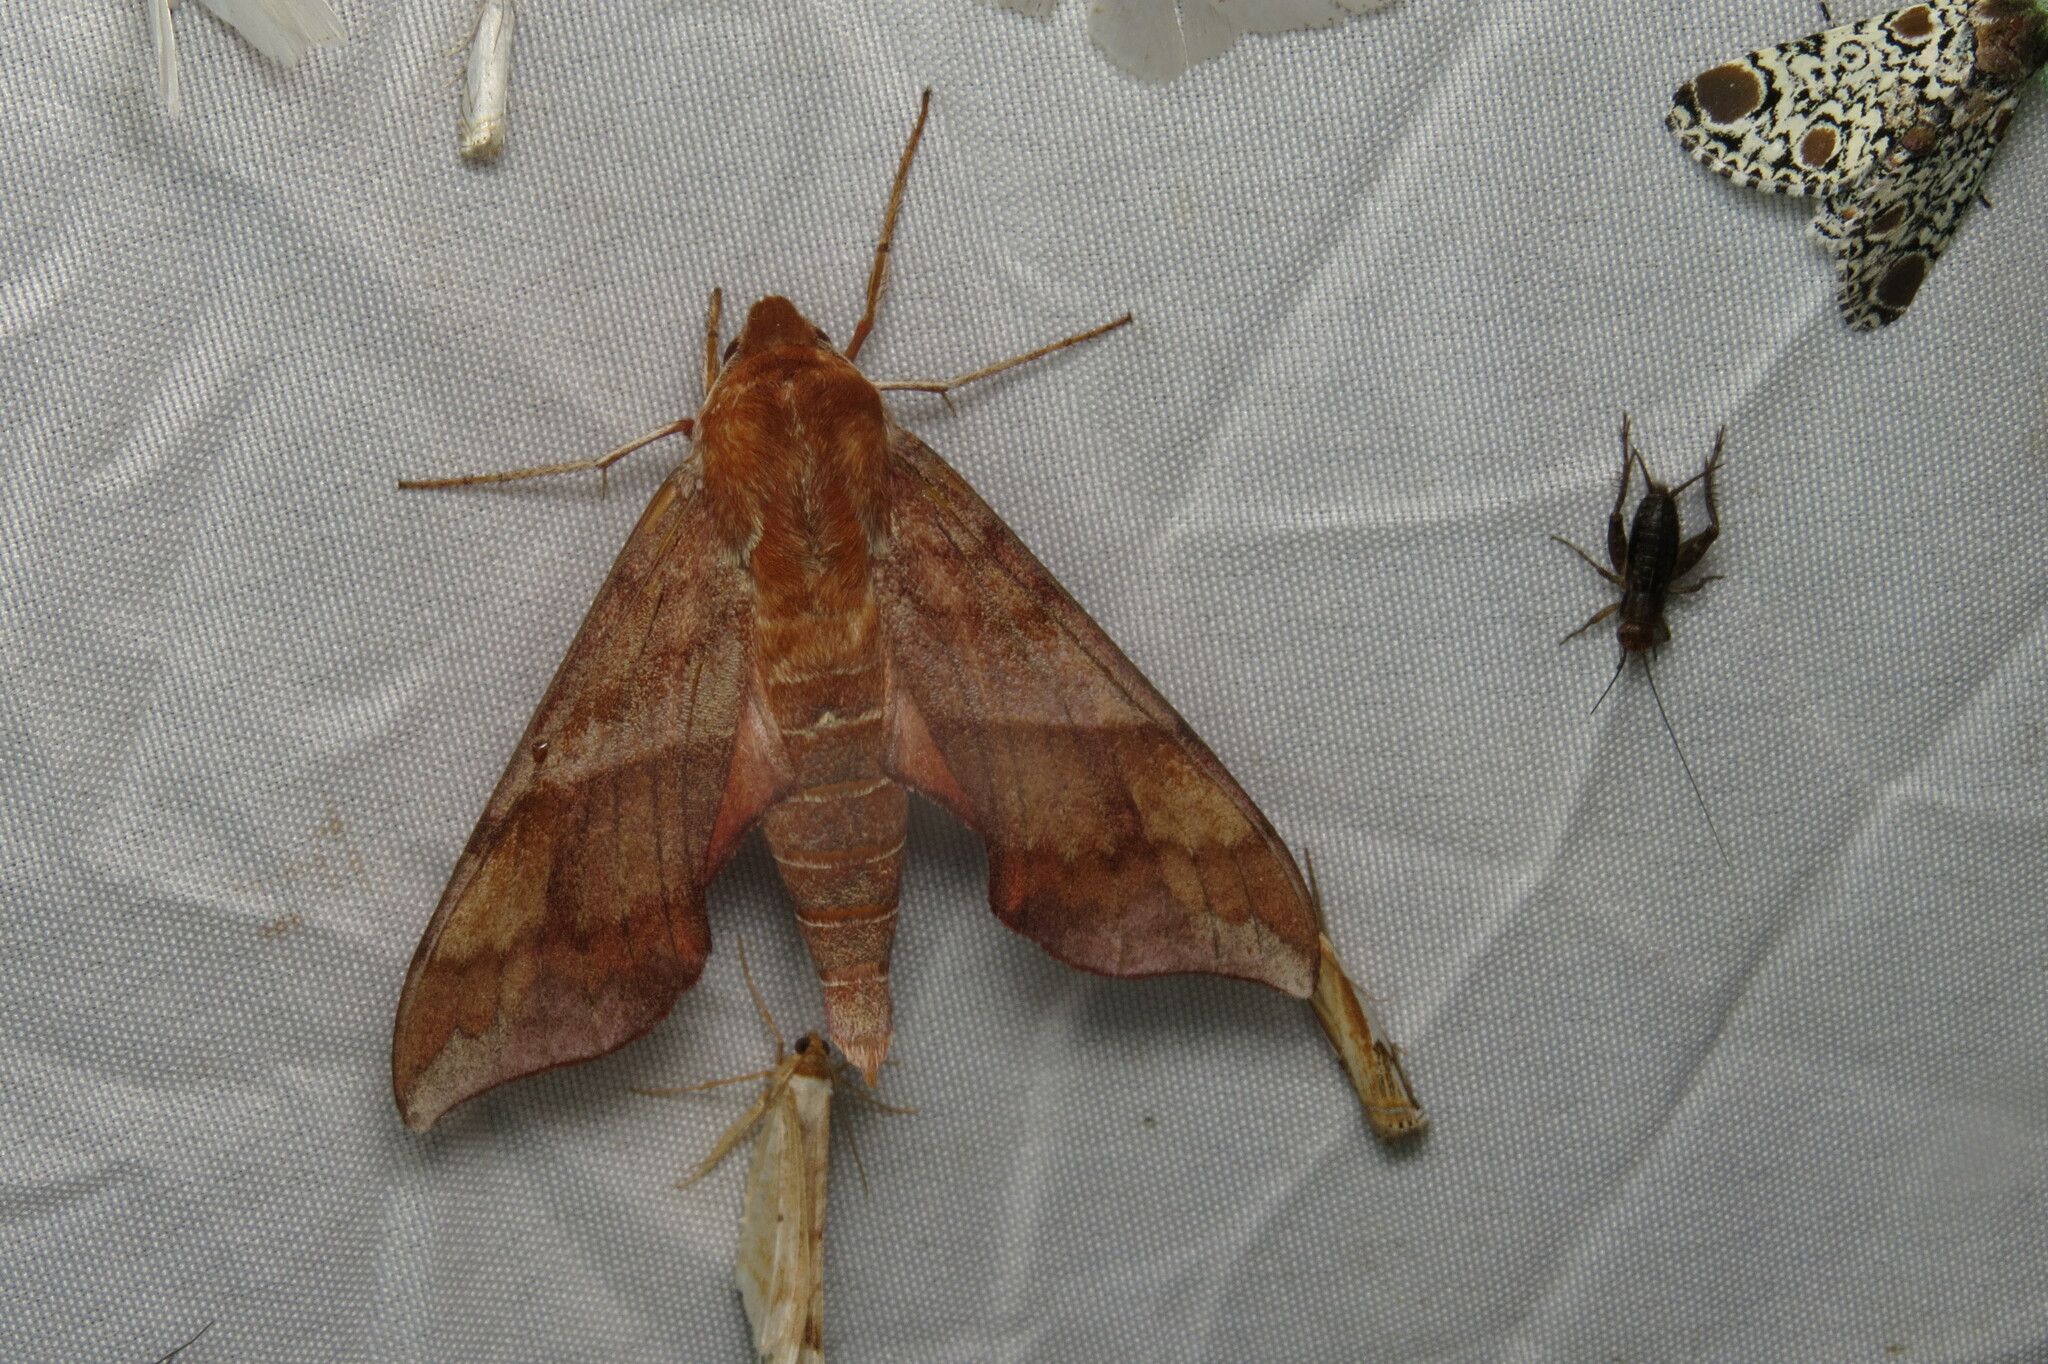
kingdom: Animalia
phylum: Arthropoda
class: Insecta
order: Lepidoptera
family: Sphingidae
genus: Darapsa
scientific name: Darapsa choerilus
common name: Azalea sphinx
